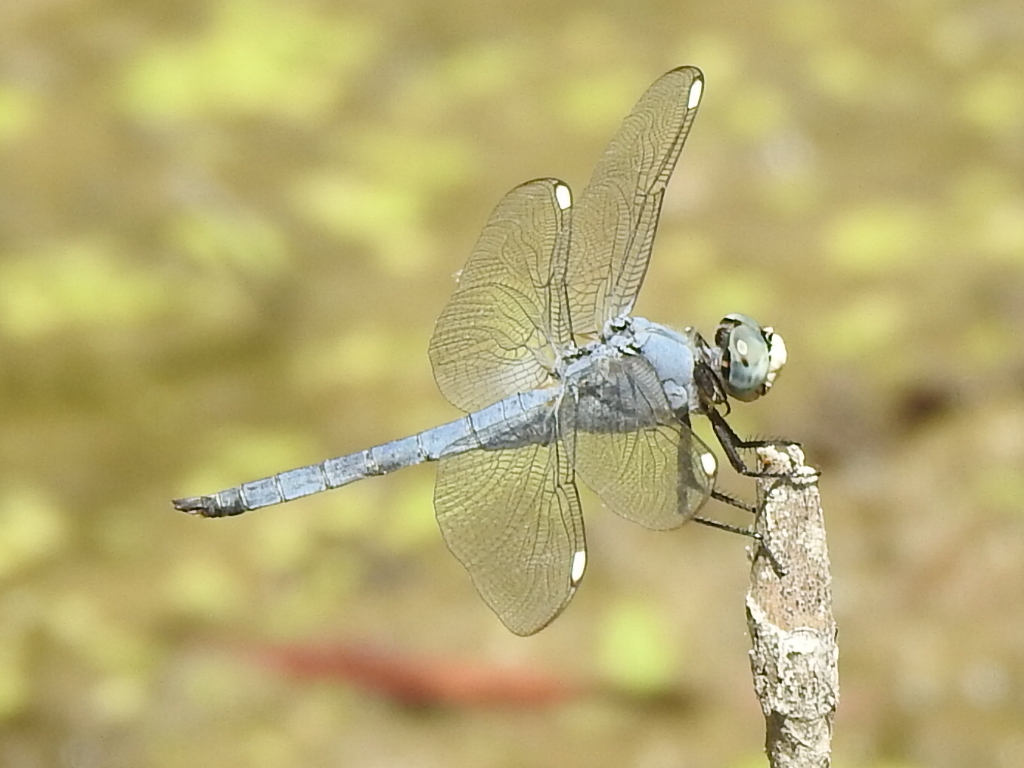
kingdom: Animalia
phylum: Arthropoda
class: Insecta
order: Odonata
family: Libellulidae
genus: Libellula
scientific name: Libellula comanche
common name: Comanche skimmer
